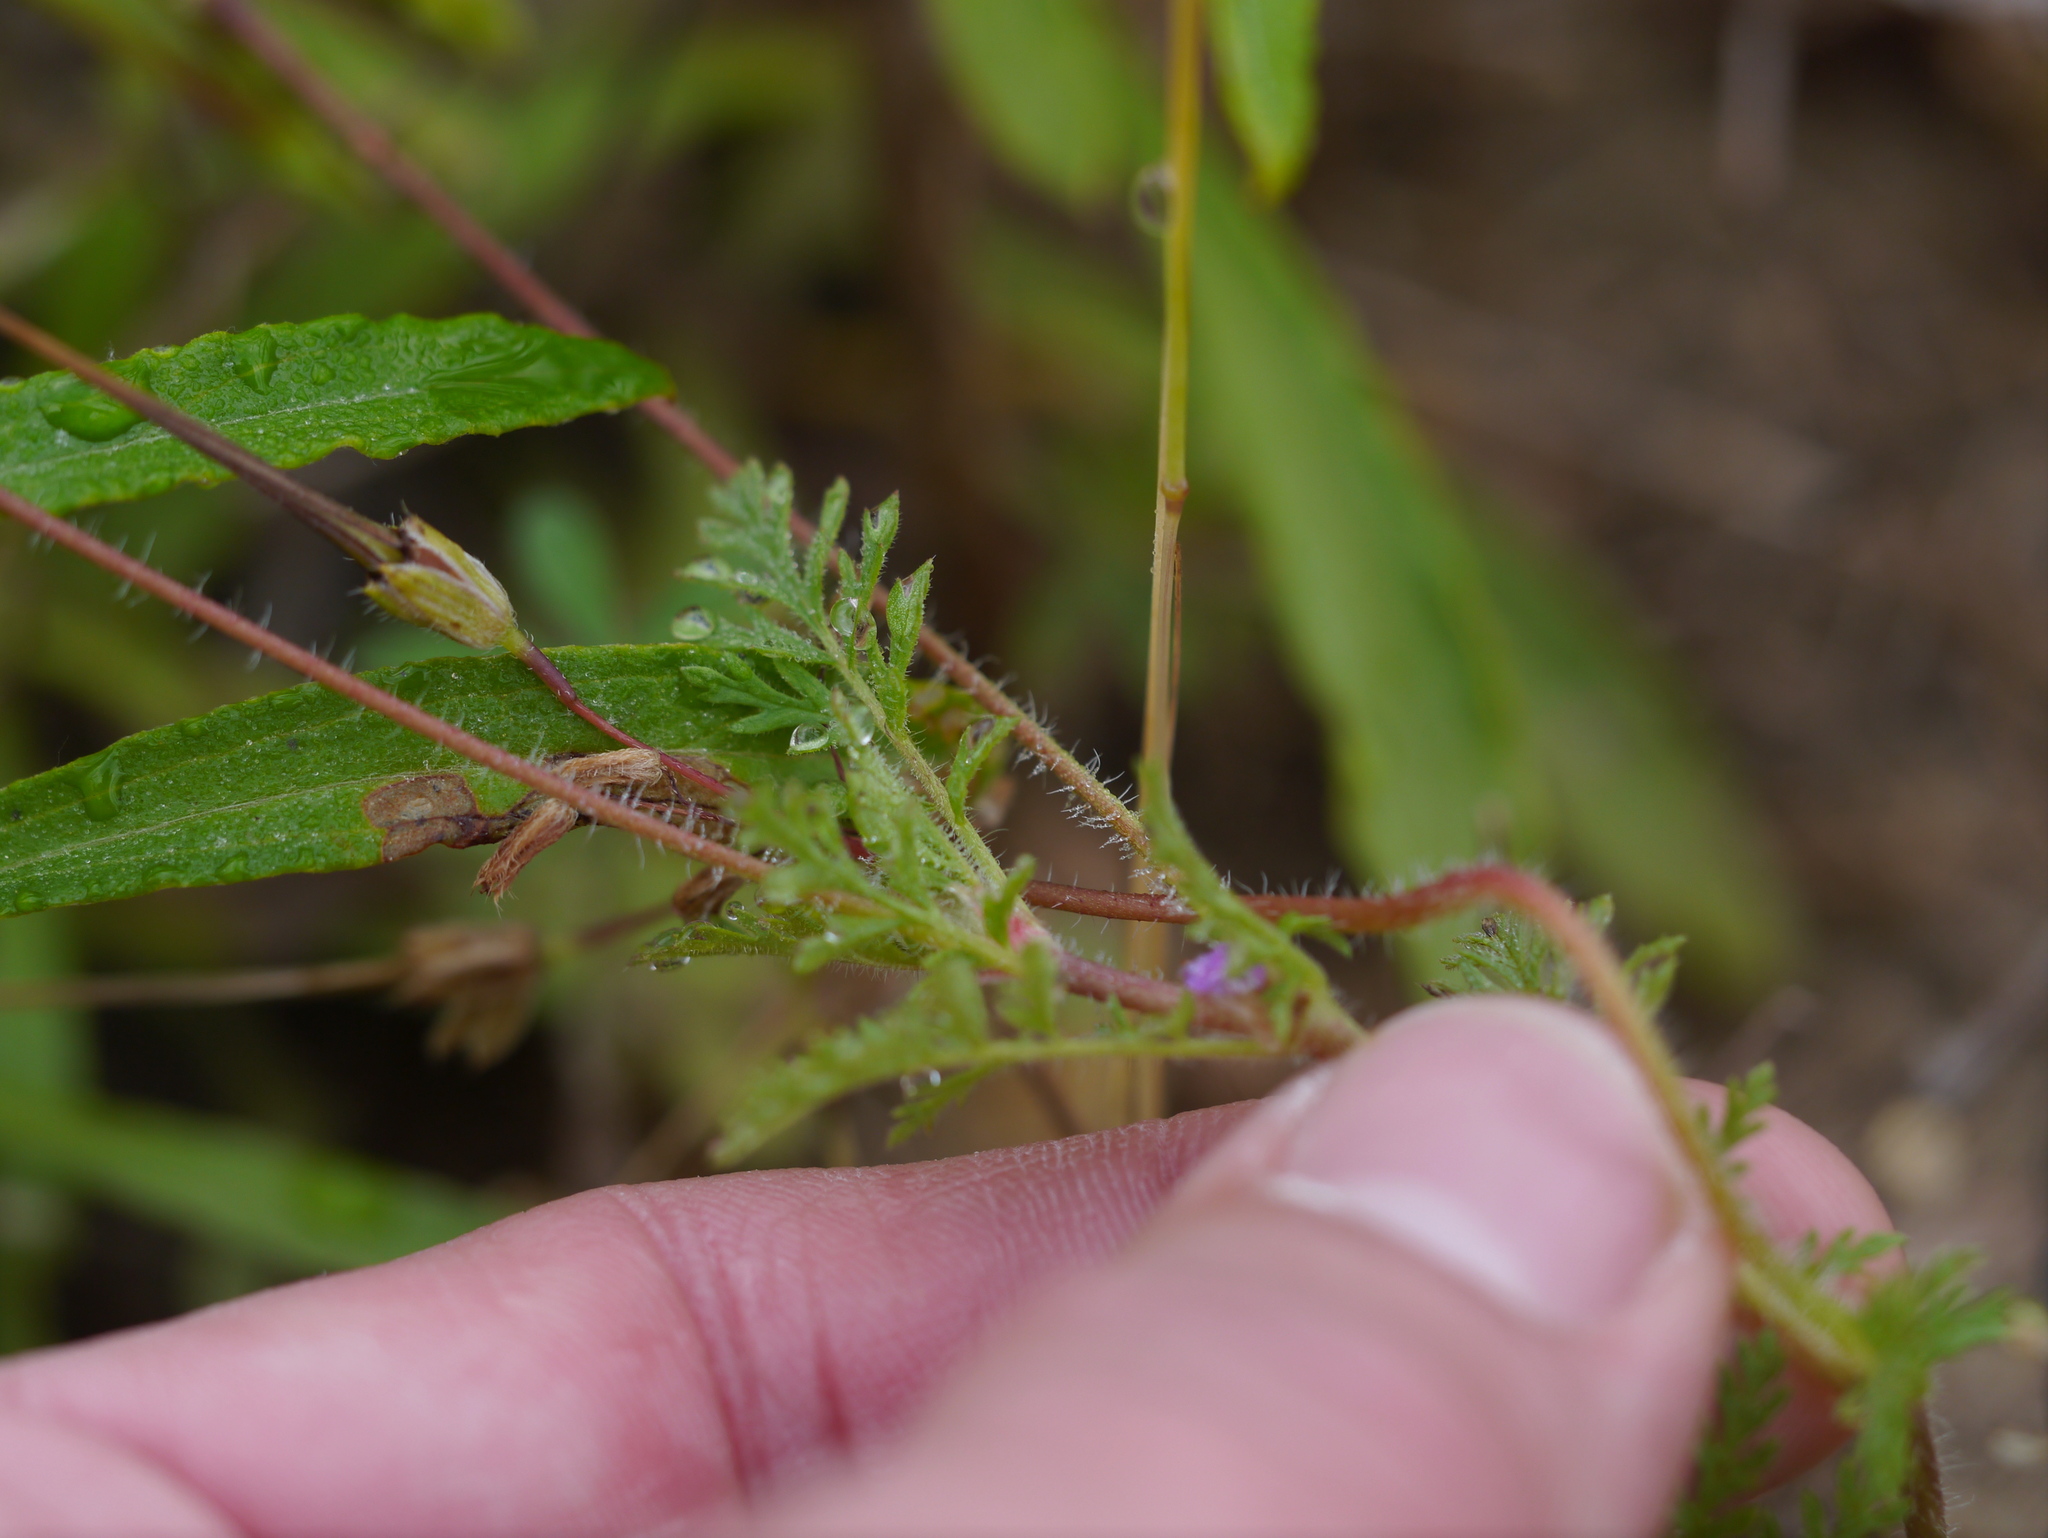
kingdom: Plantae
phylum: Tracheophyta
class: Magnoliopsida
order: Geraniales
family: Geraniaceae
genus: Erodium
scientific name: Erodium cicutarium
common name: Common stork's-bill
